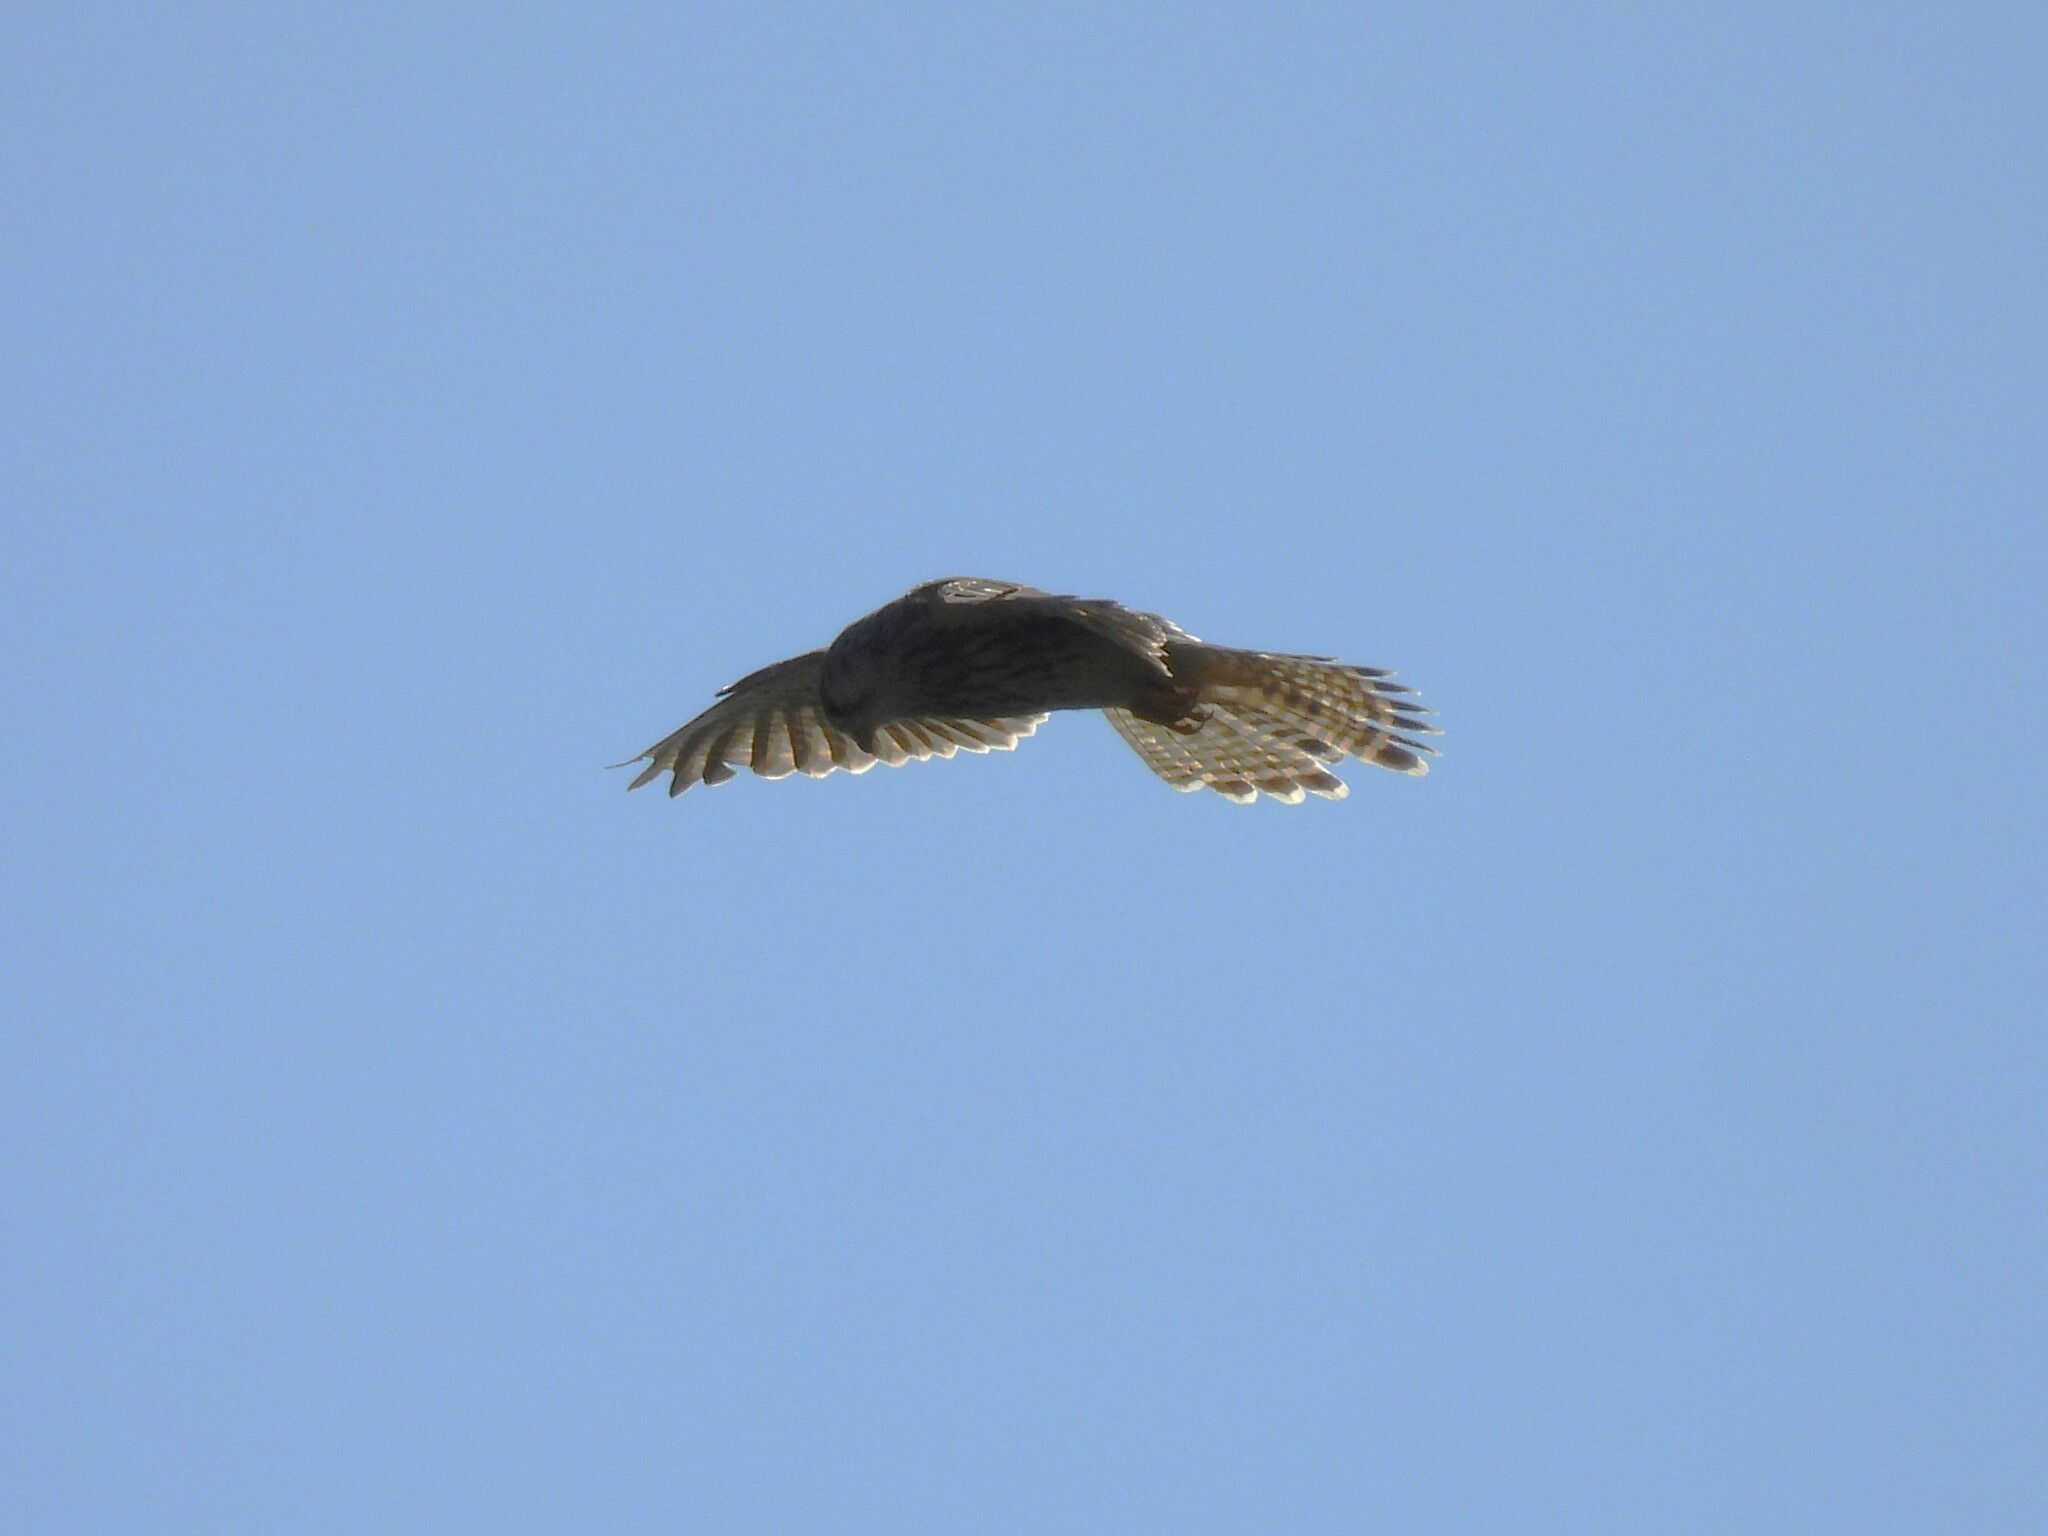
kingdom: Animalia
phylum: Chordata
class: Aves
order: Falconiformes
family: Falconidae
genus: Falco
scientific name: Falco tinnunculus
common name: Common kestrel
